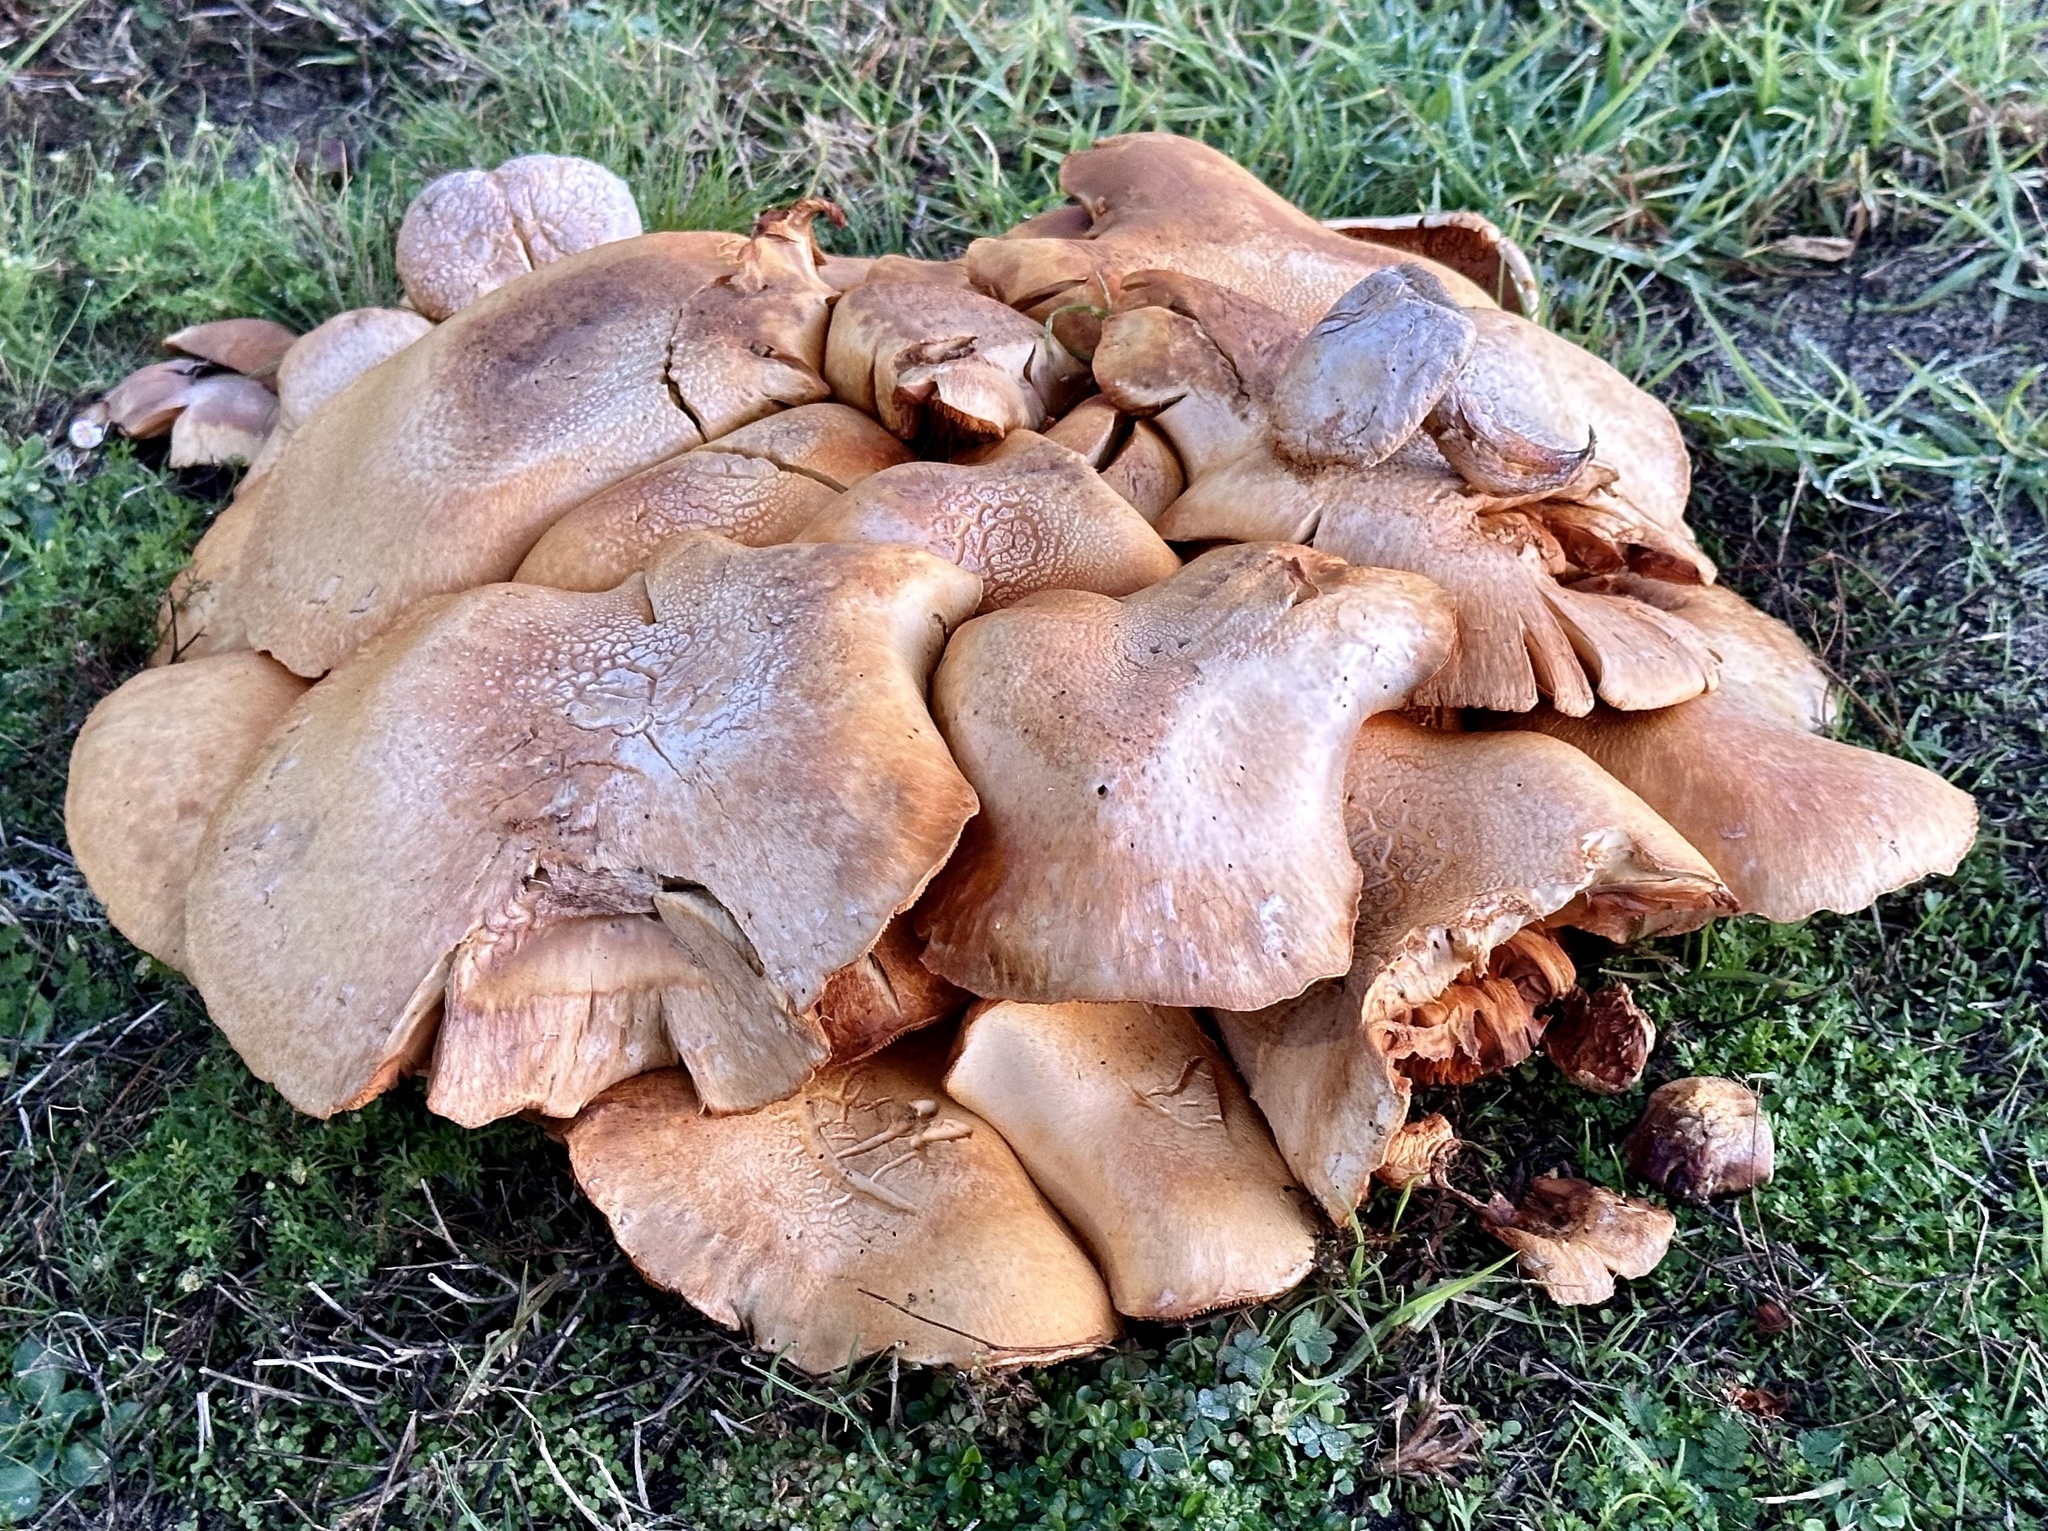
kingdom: Fungi
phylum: Basidiomycota
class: Agaricomycetes
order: Agaricales
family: Hymenogastraceae
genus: Gymnopilus
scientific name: Gymnopilus ventricosus
